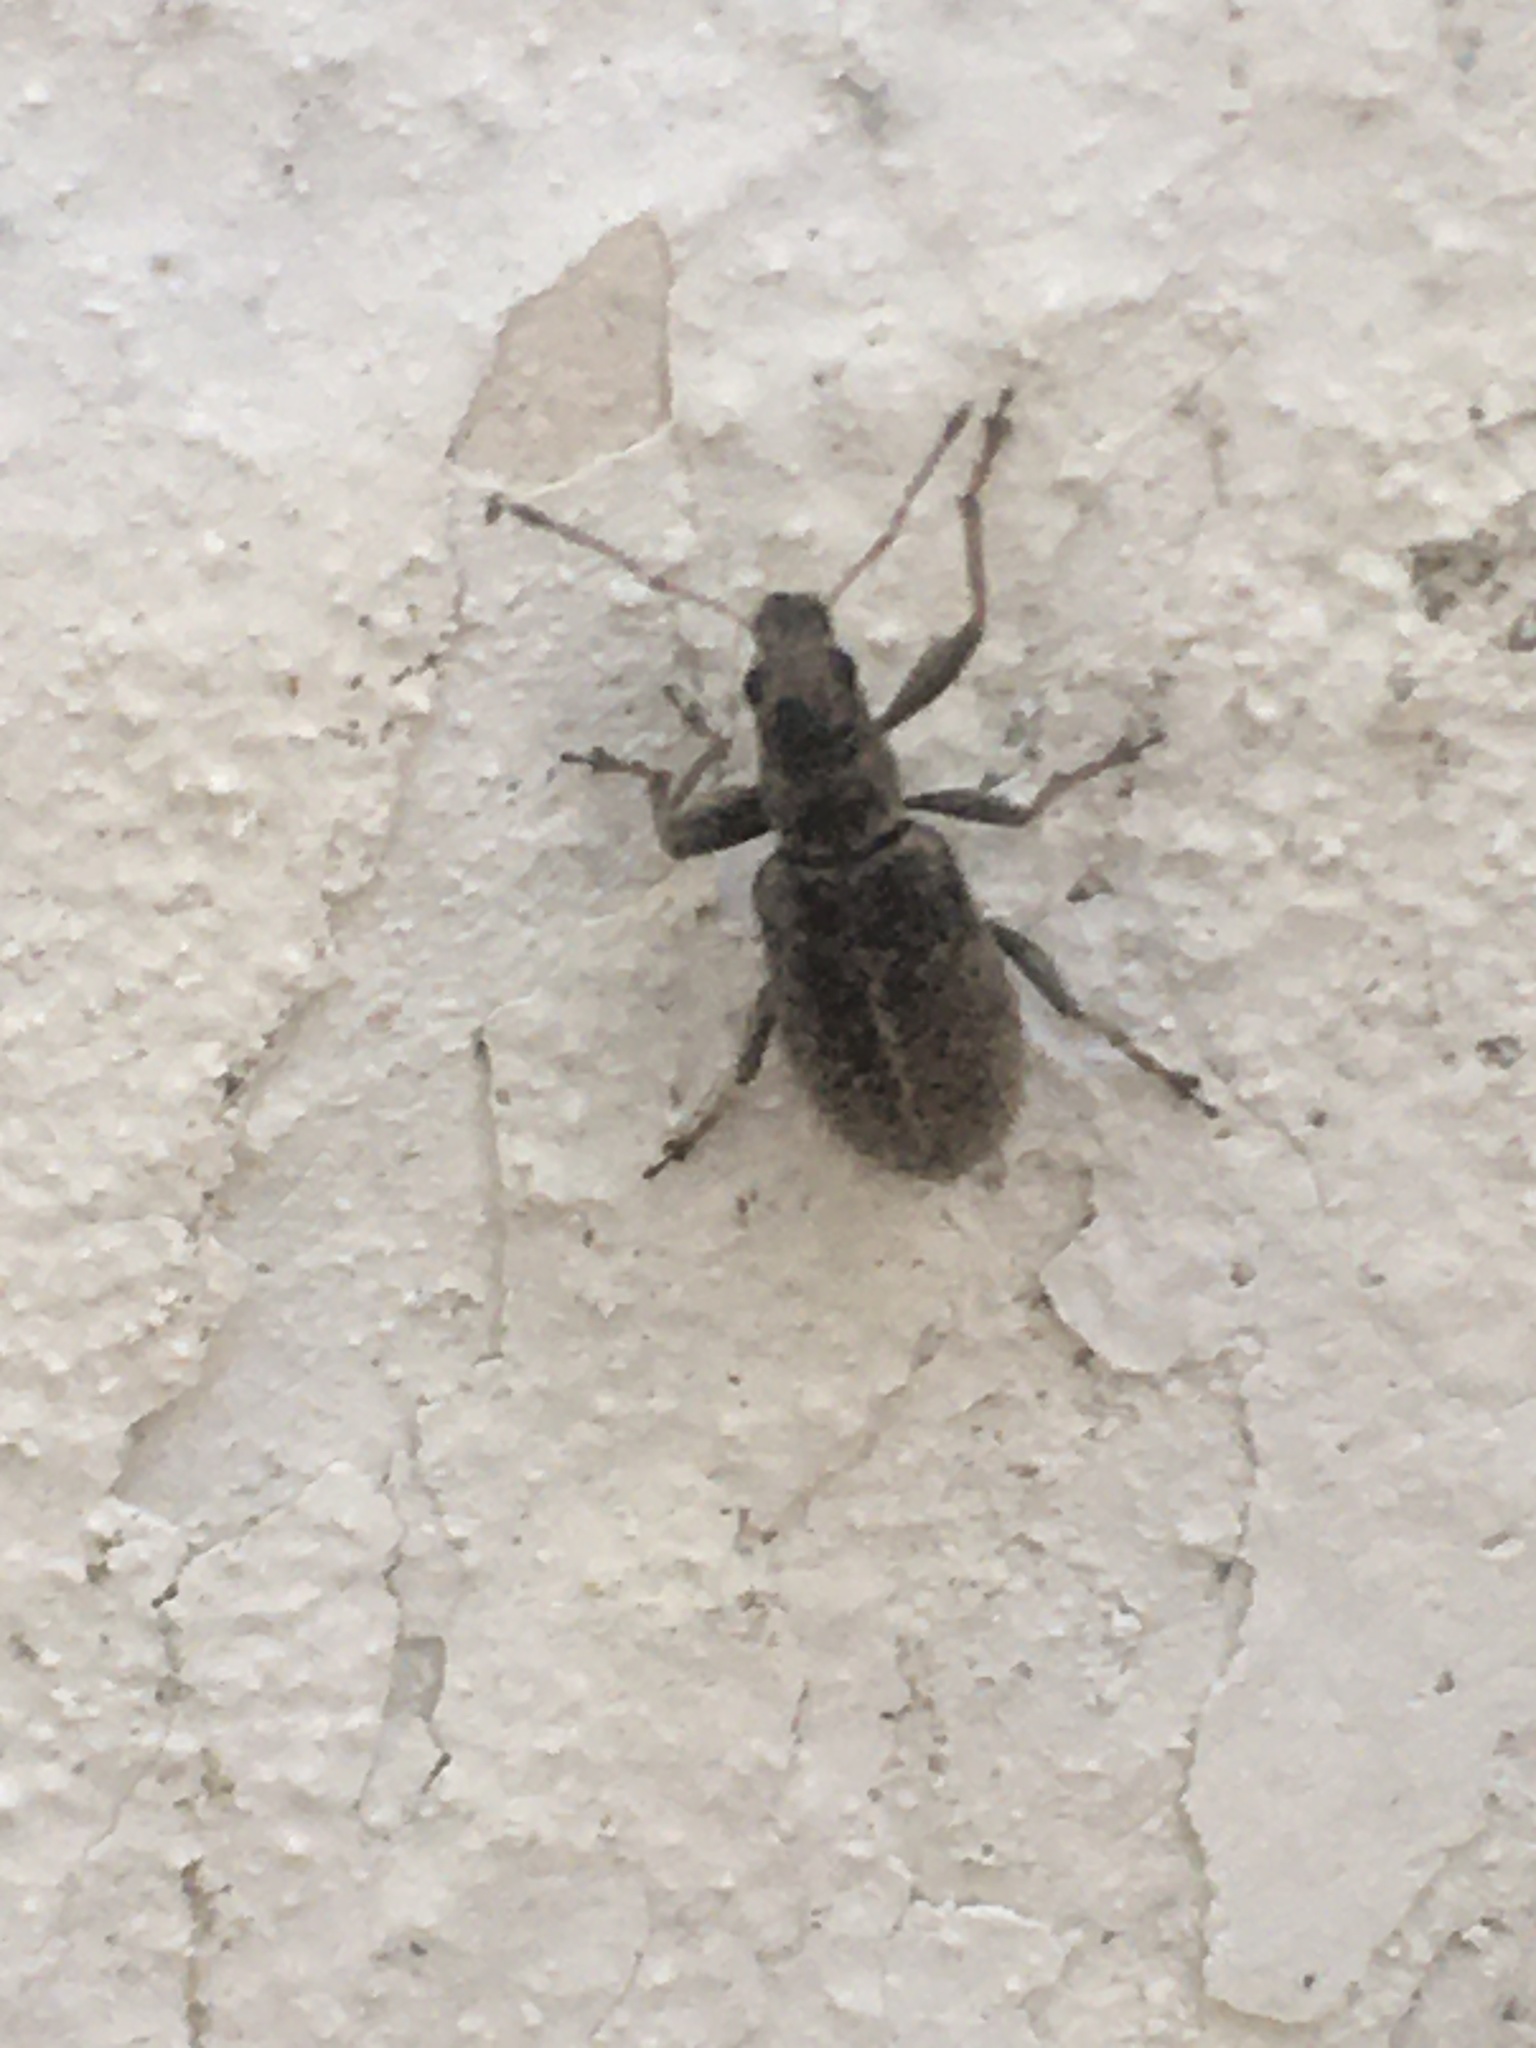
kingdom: Animalia
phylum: Arthropoda
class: Insecta
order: Coleoptera
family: Curculionidae
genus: Polydrusus
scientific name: Polydrusus inustus
